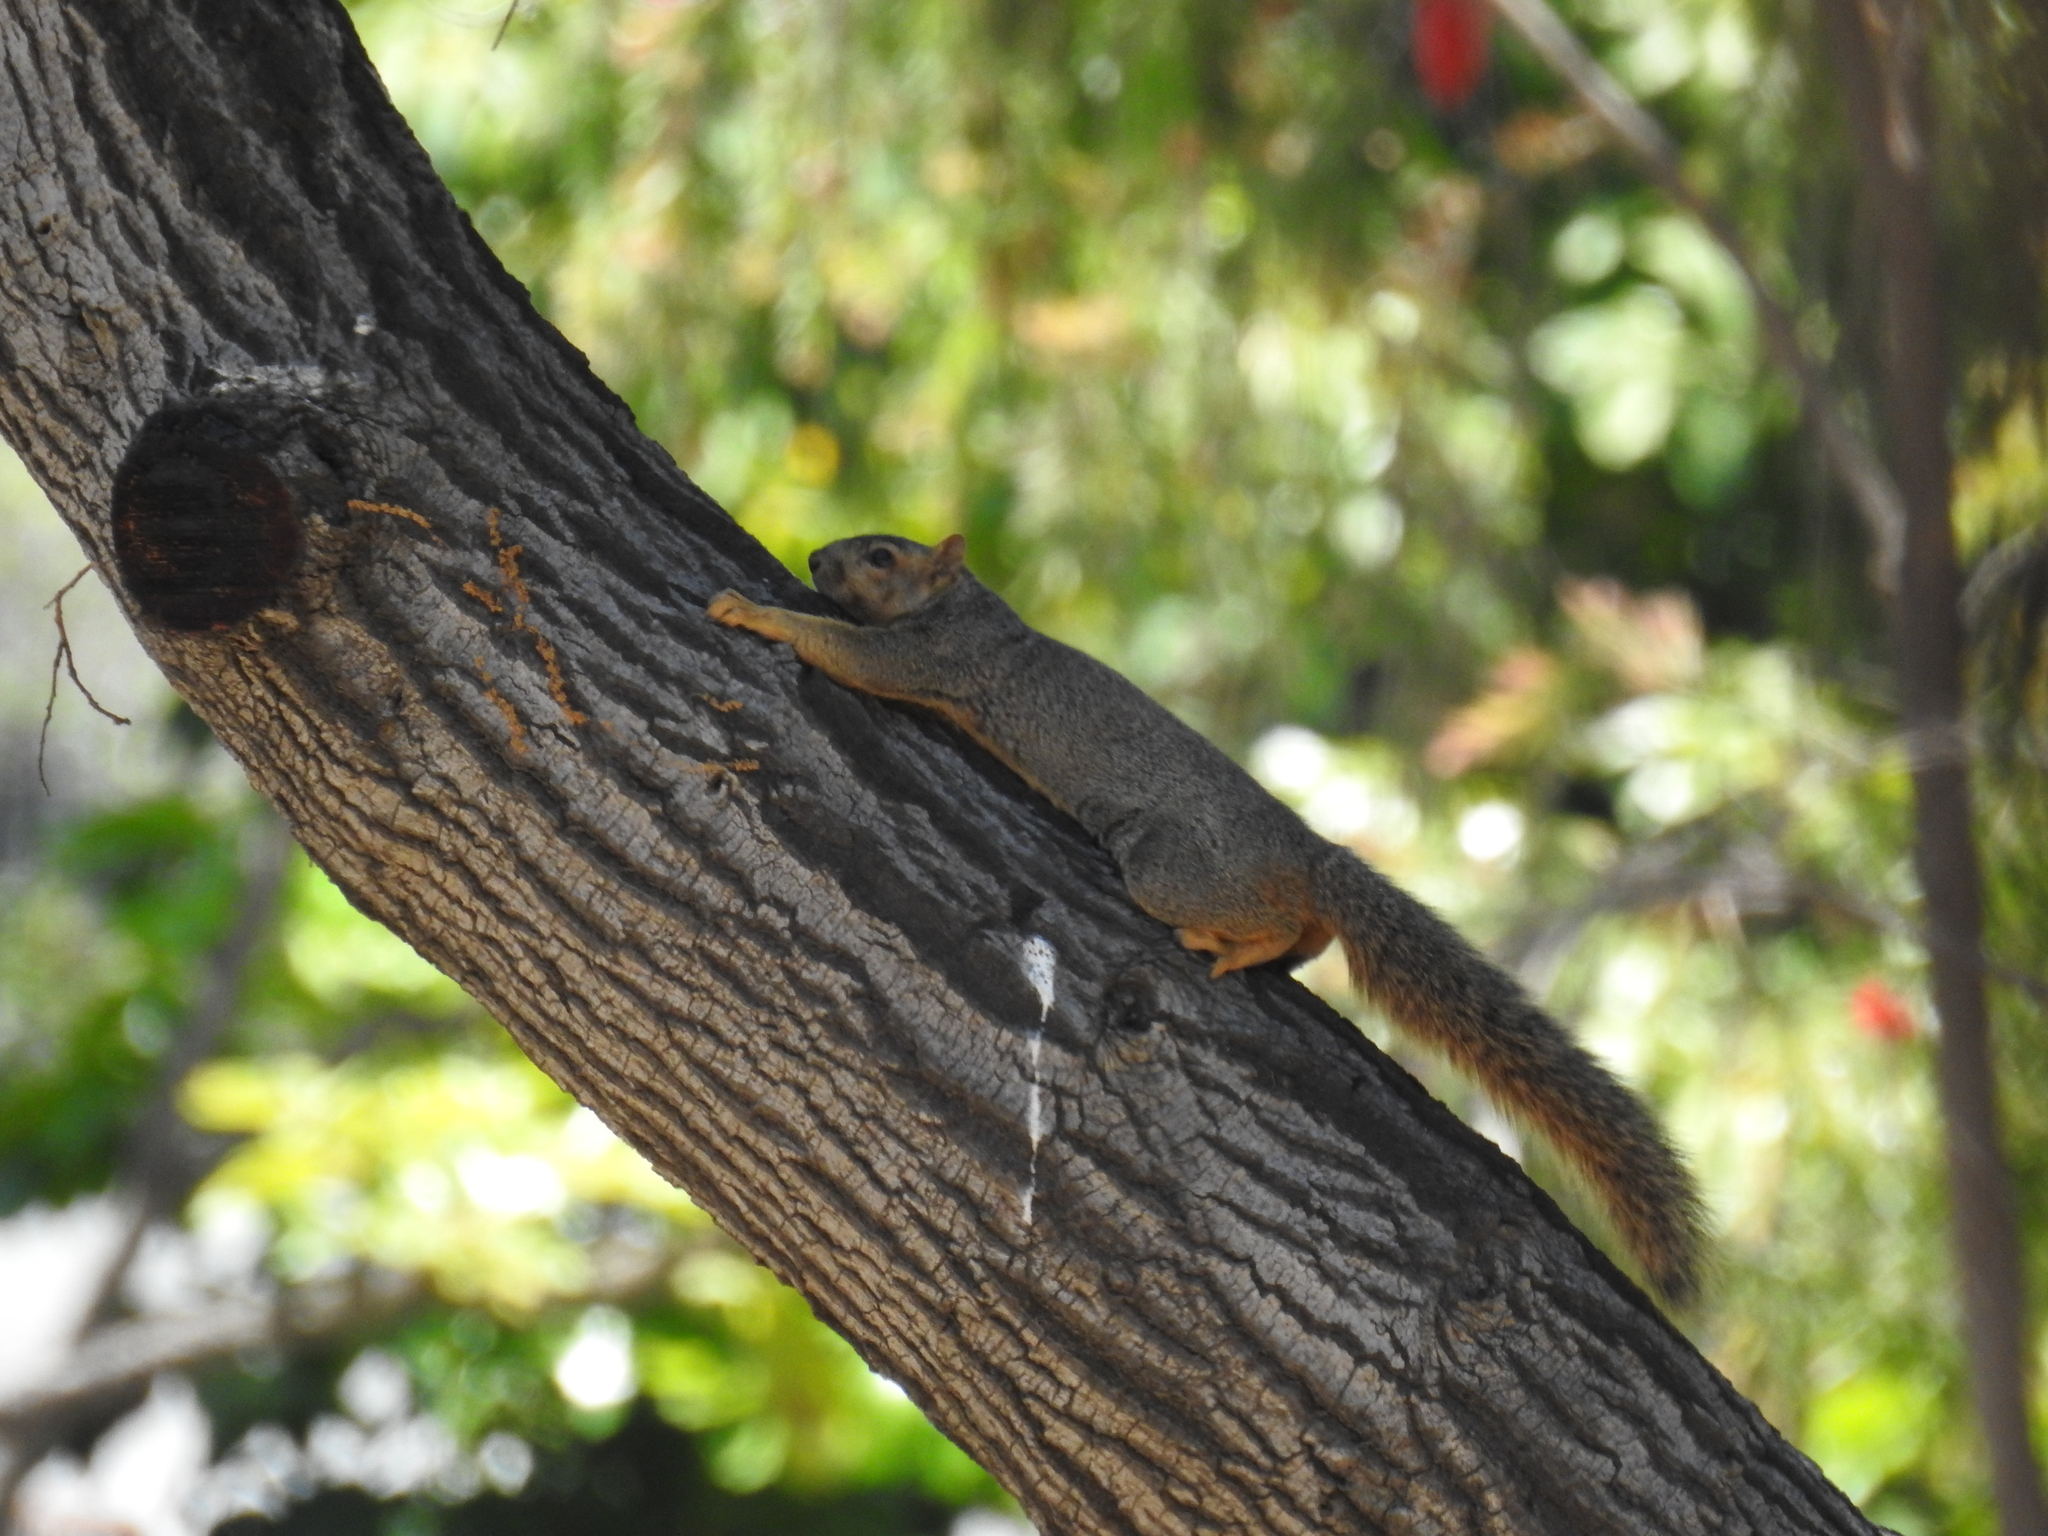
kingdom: Animalia
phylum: Chordata
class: Mammalia
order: Rodentia
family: Sciuridae
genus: Sciurus
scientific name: Sciurus niger
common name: Fox squirrel
